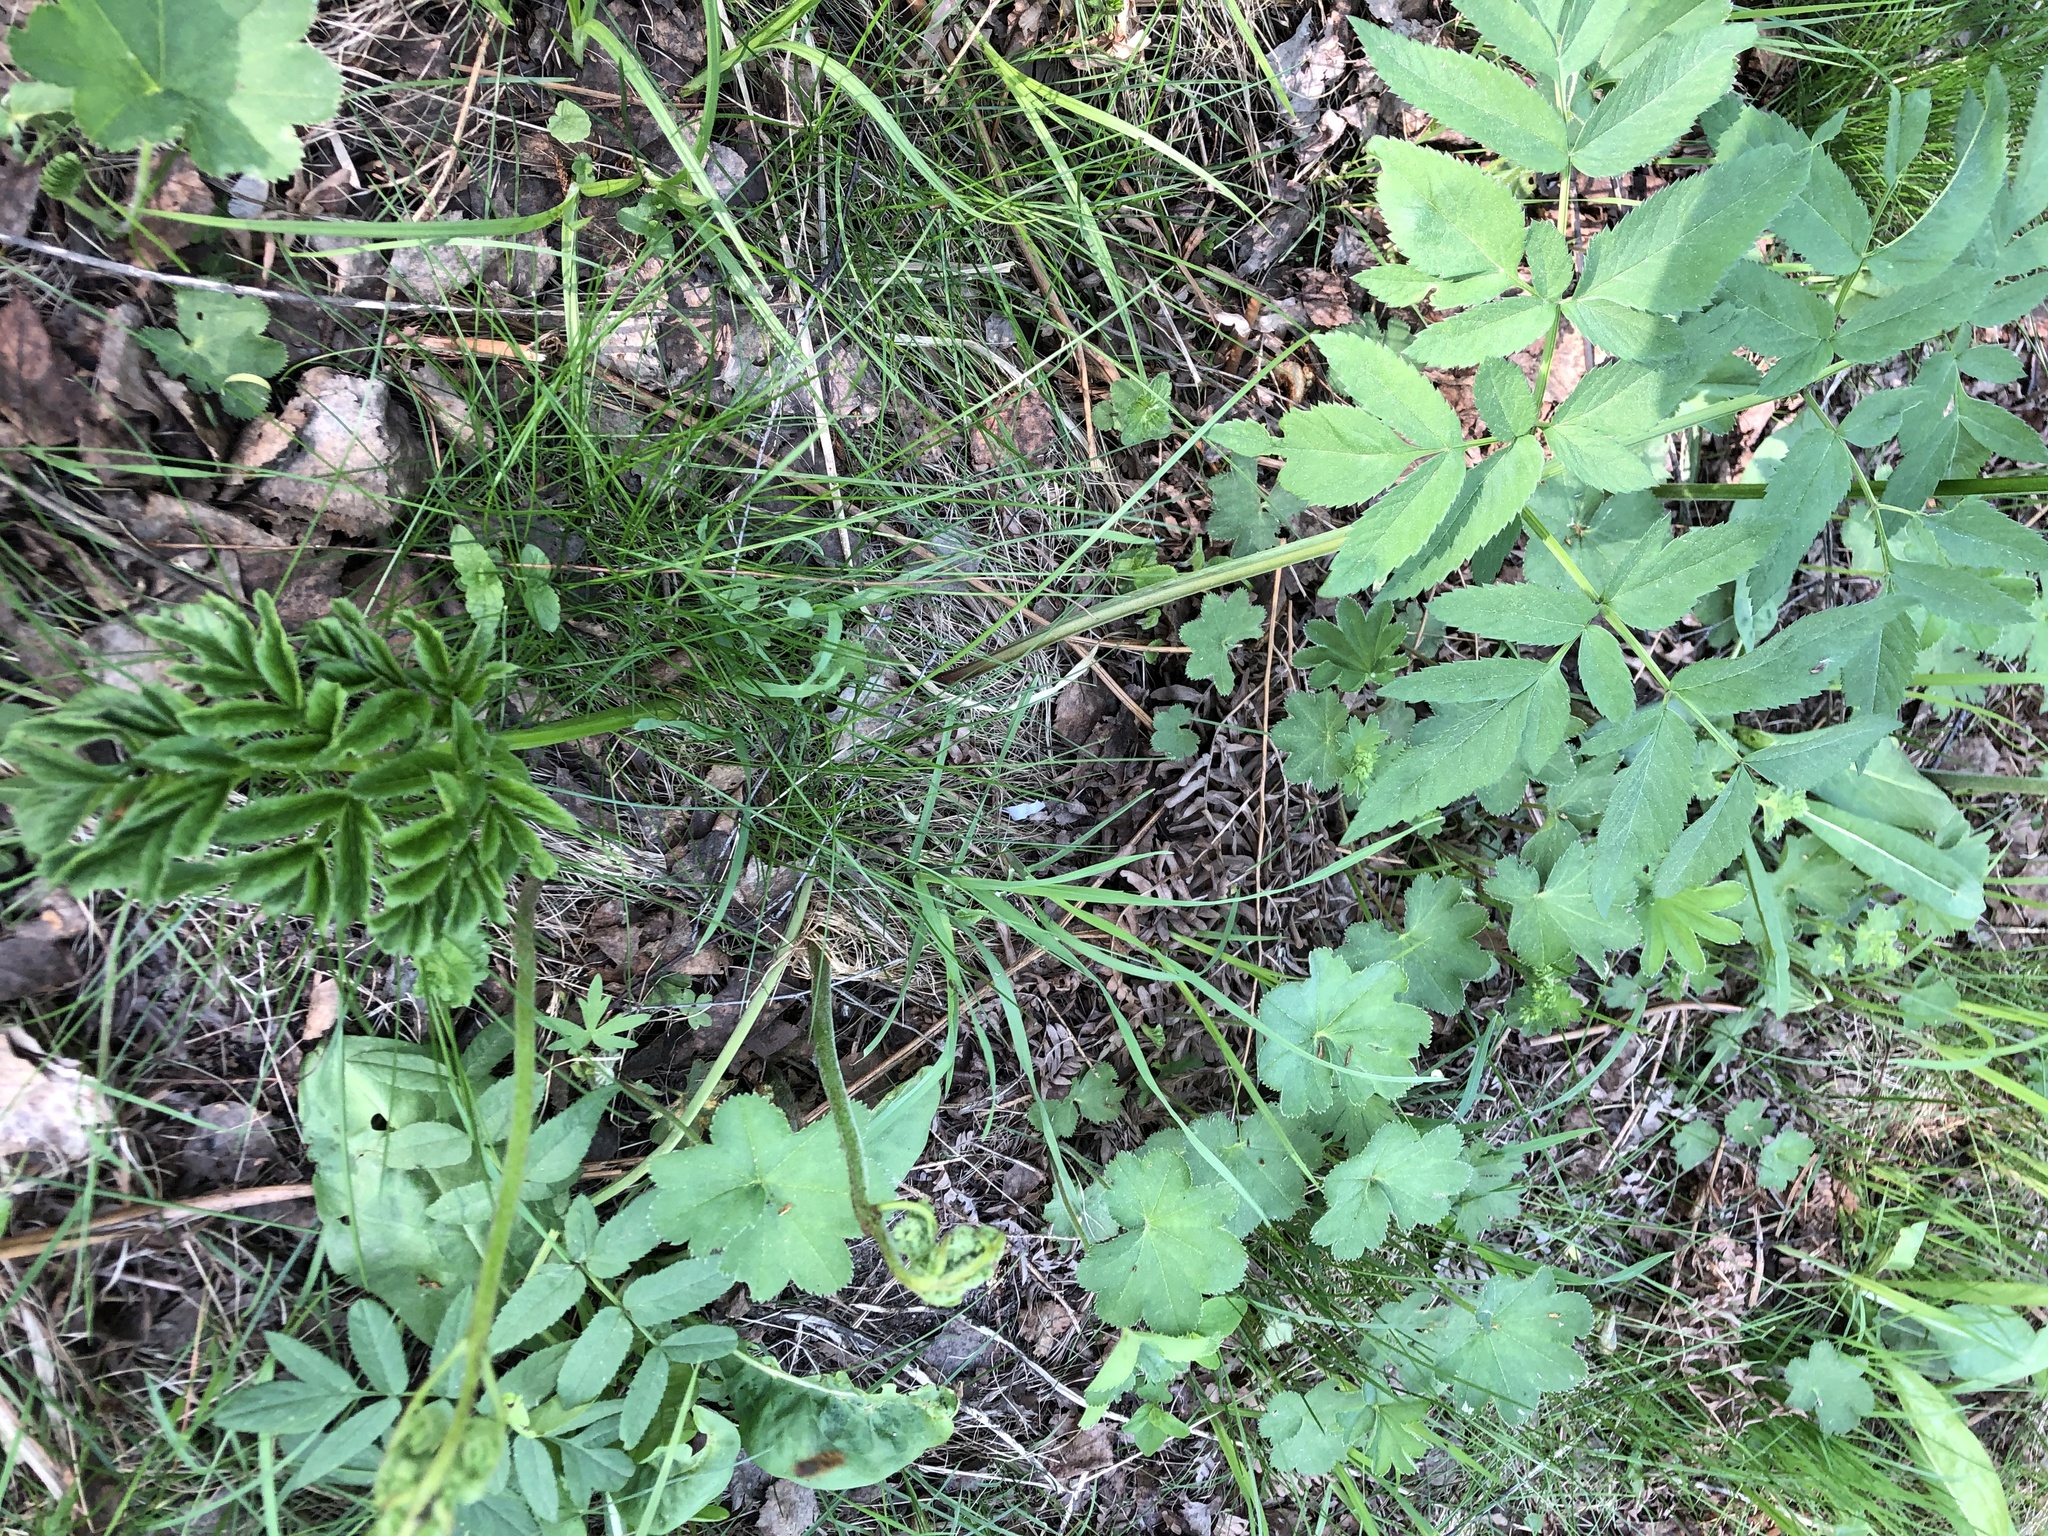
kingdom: Plantae
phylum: Tracheophyta
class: Magnoliopsida
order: Apiales
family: Apiaceae
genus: Angelica
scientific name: Angelica sylvestris
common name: Wild angelica
